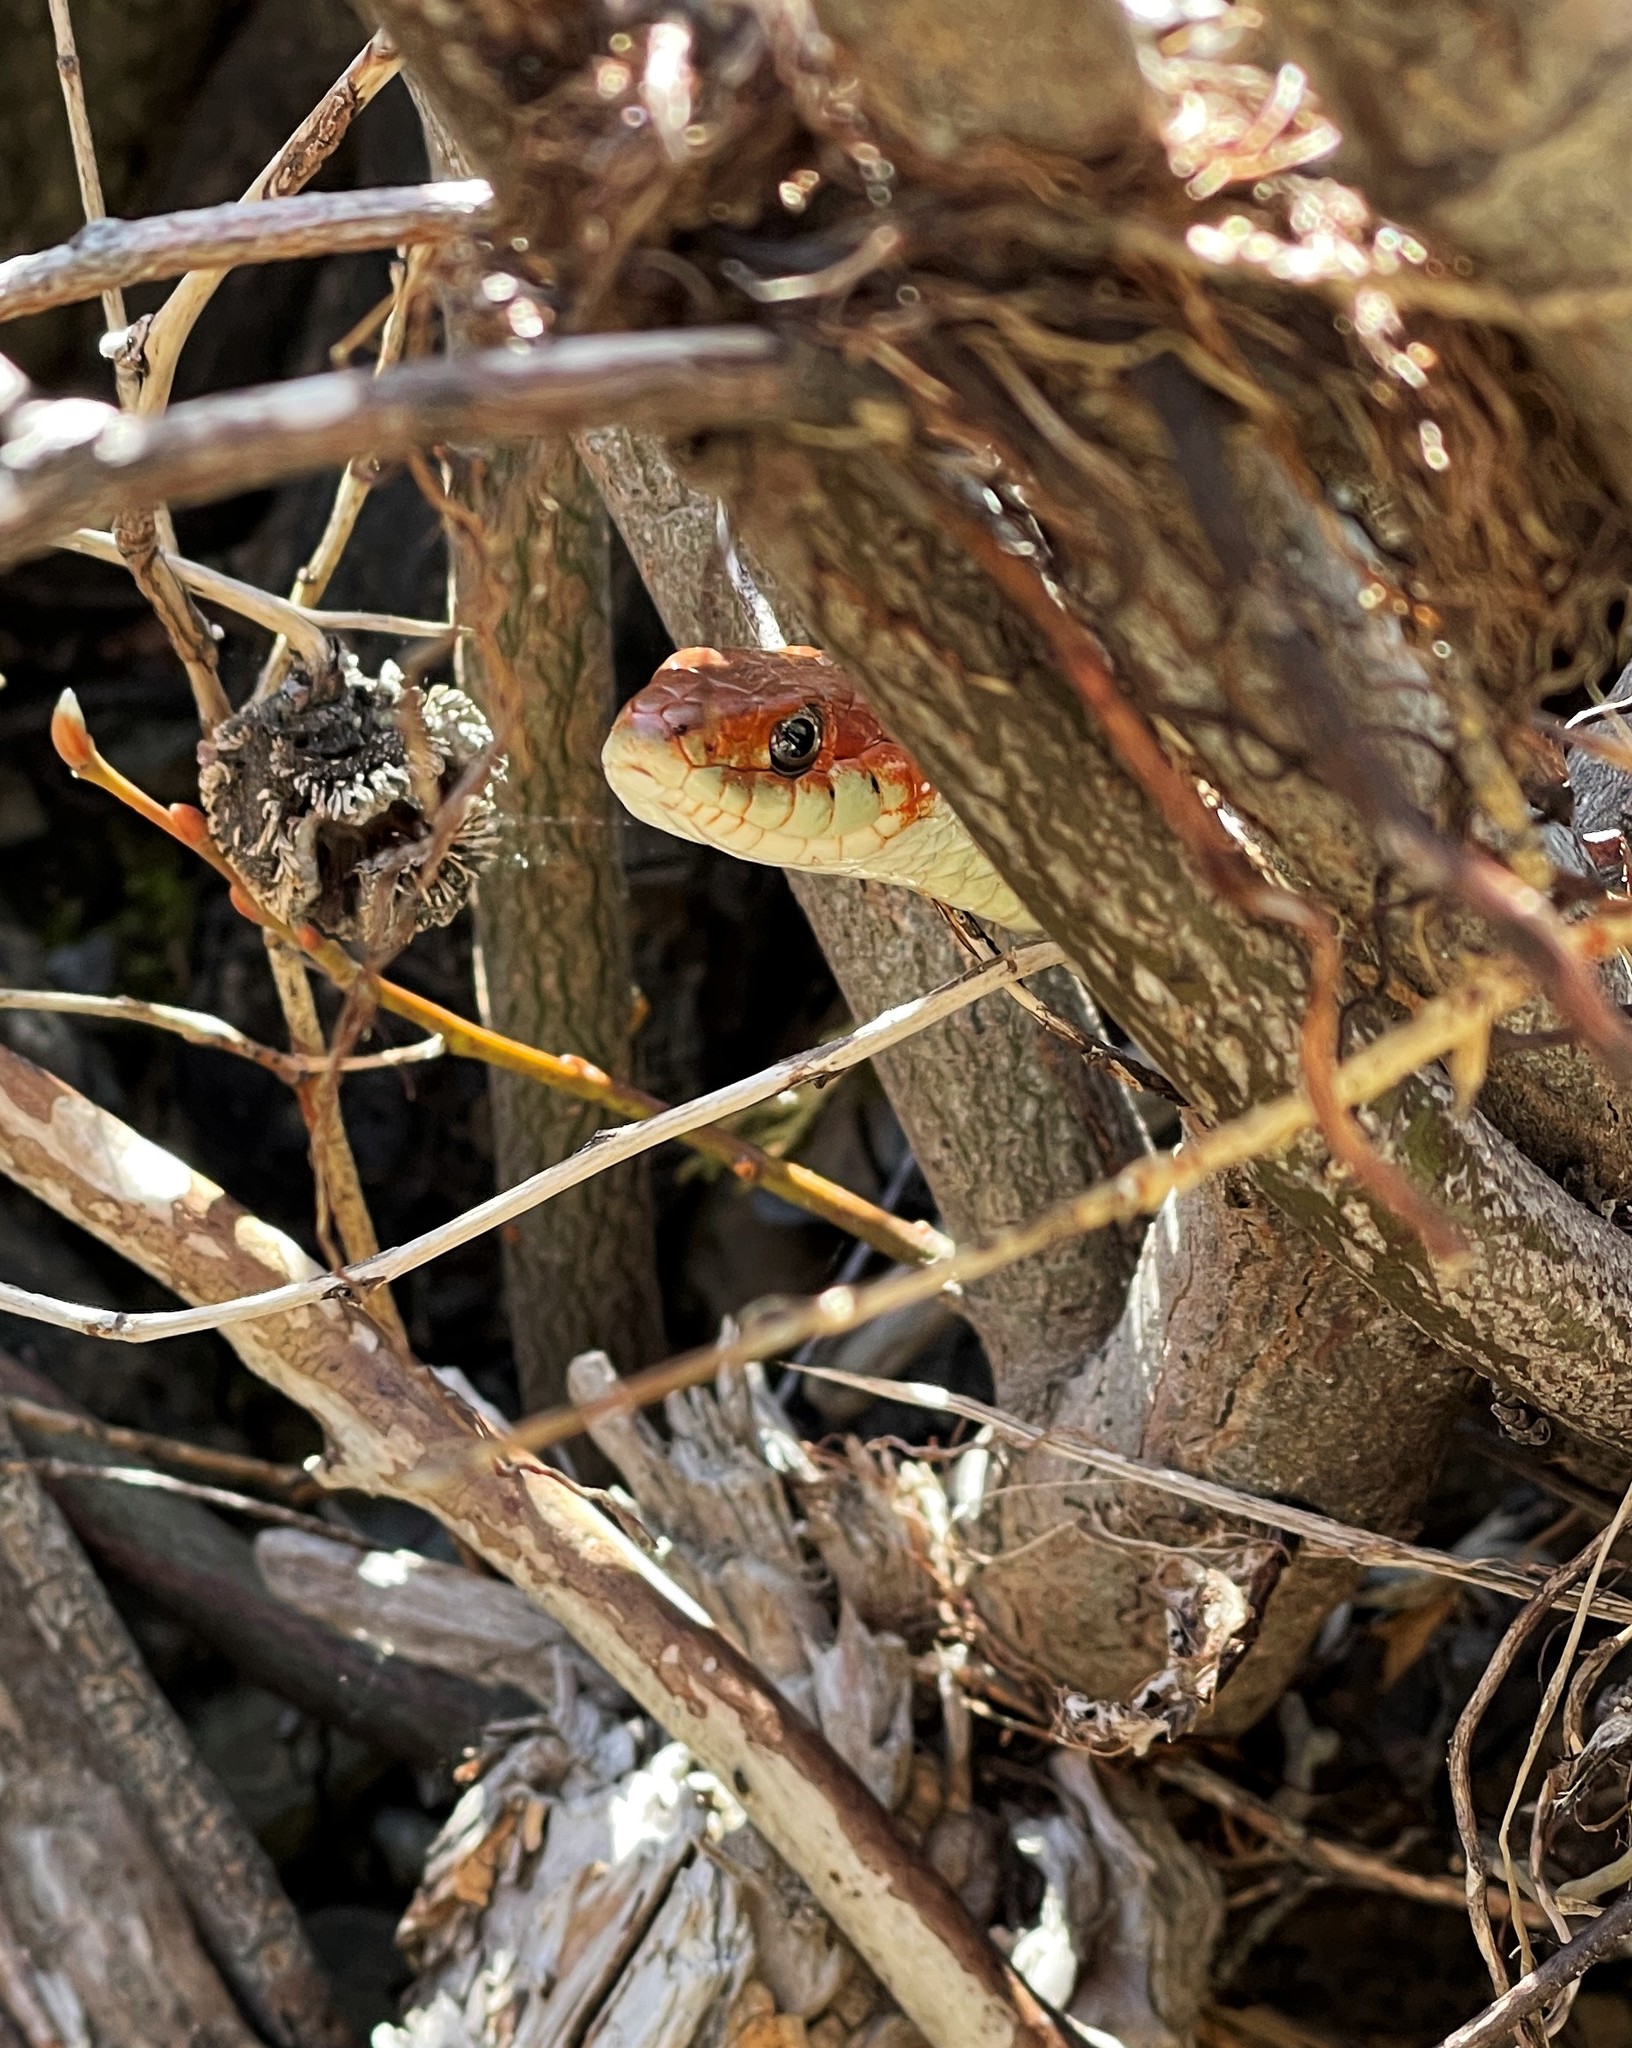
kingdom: Animalia
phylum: Chordata
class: Squamata
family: Colubridae
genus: Thamnophis
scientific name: Thamnophis sirtalis
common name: Common garter snake
